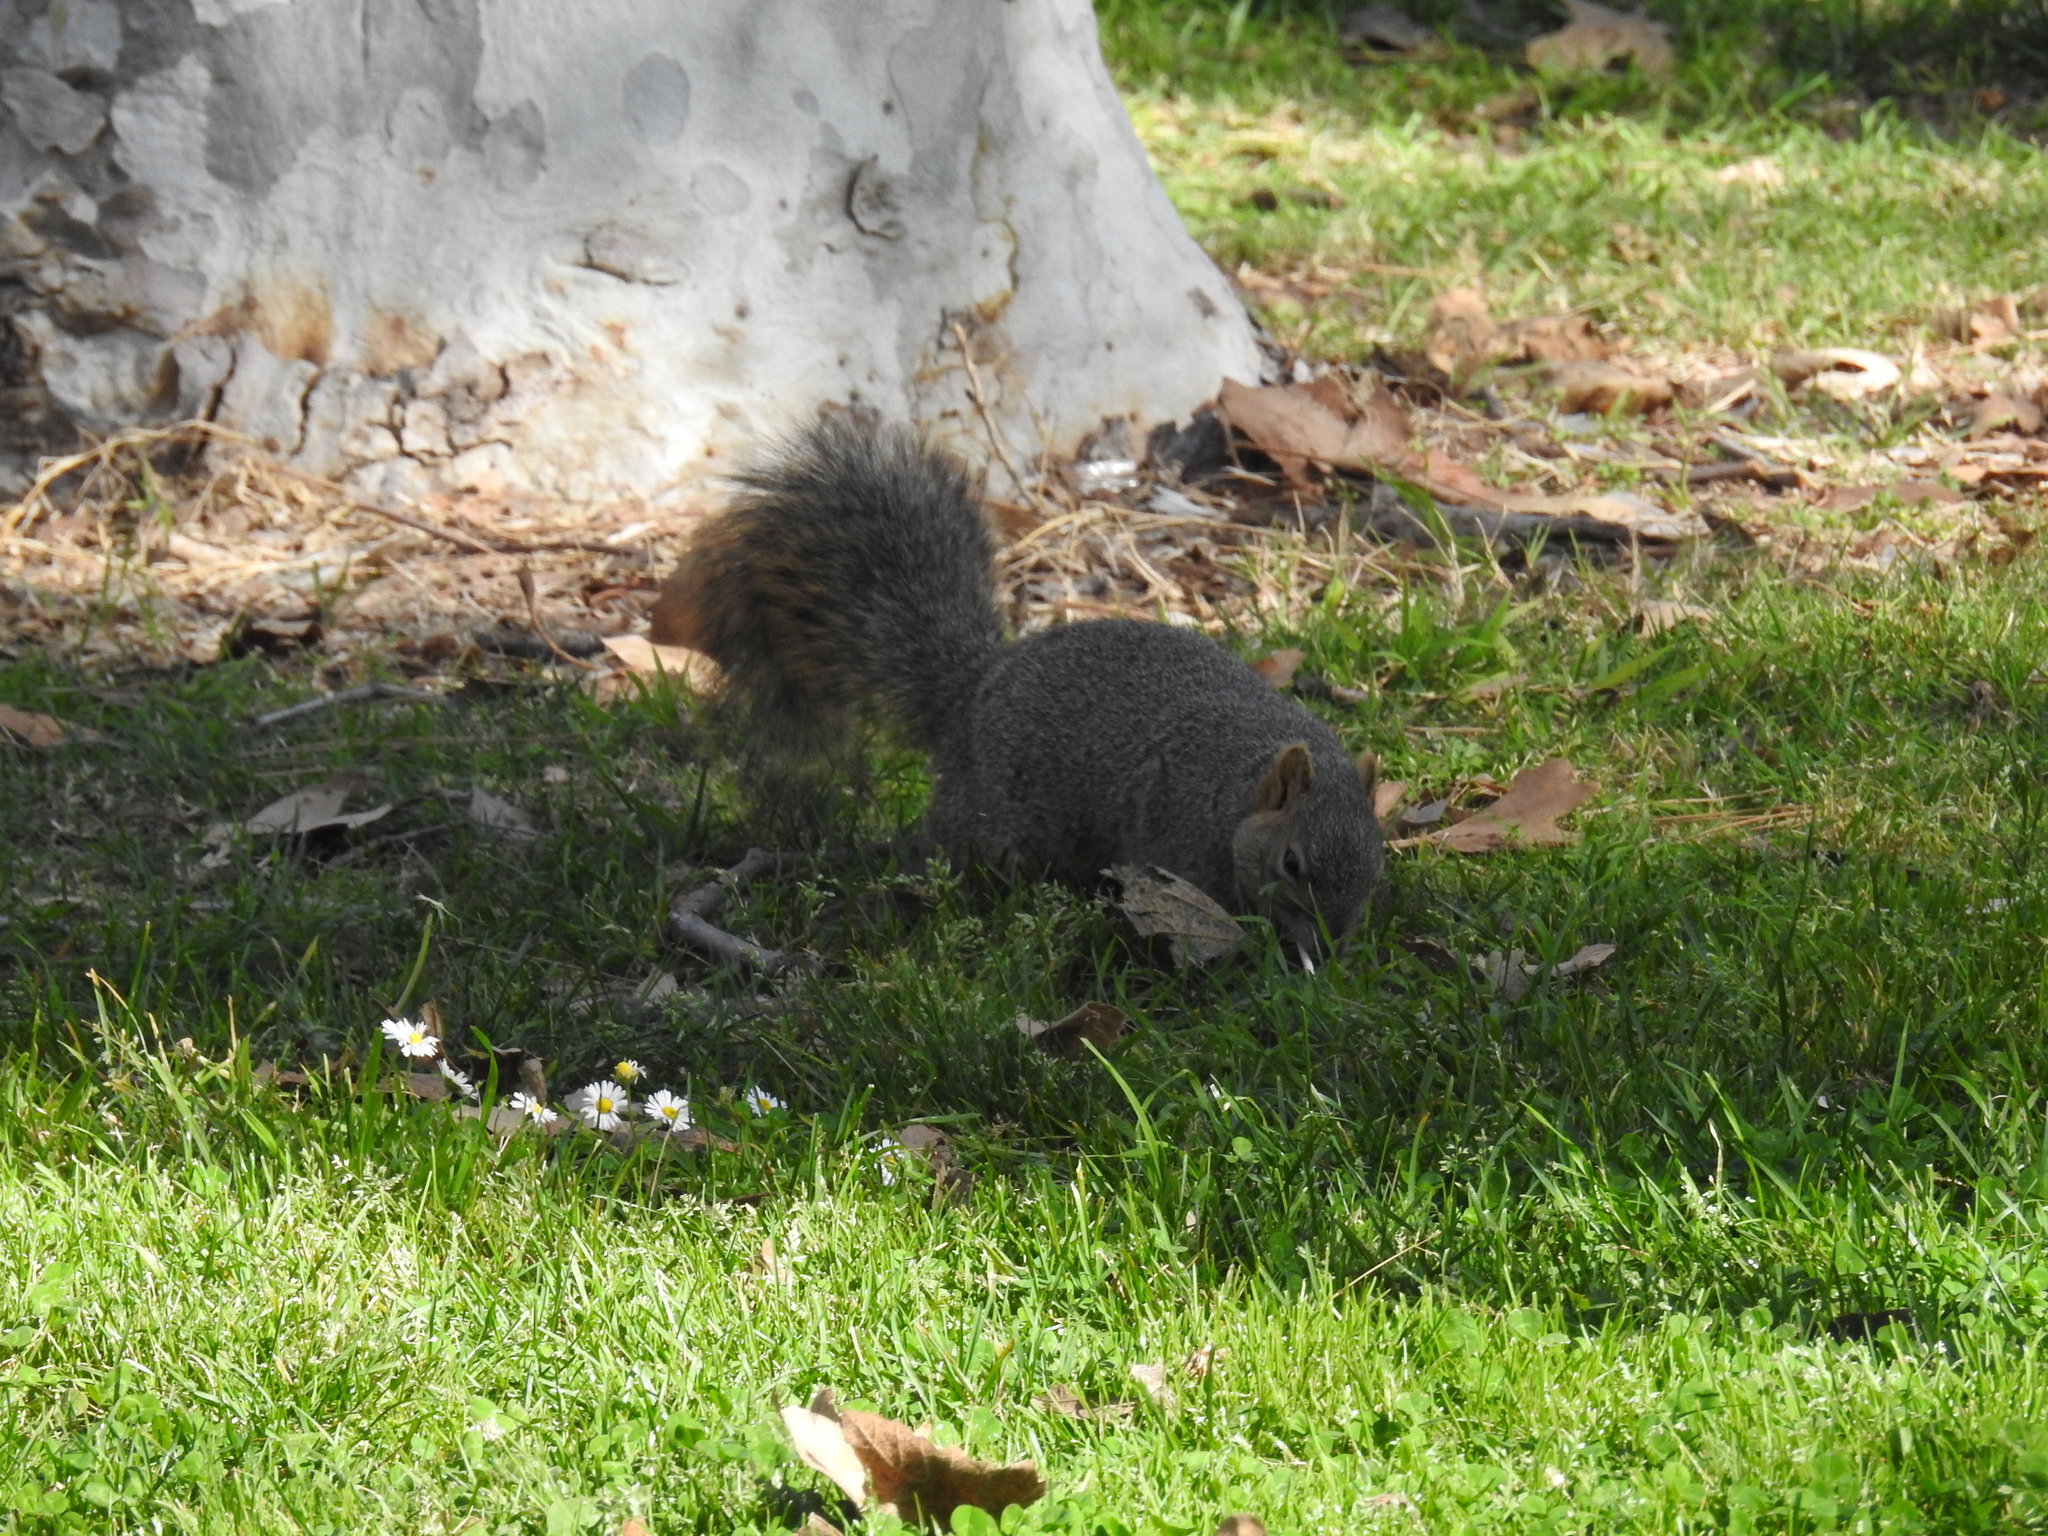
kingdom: Animalia
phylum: Chordata
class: Mammalia
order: Rodentia
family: Sciuridae
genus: Sciurus
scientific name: Sciurus niger
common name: Fox squirrel
